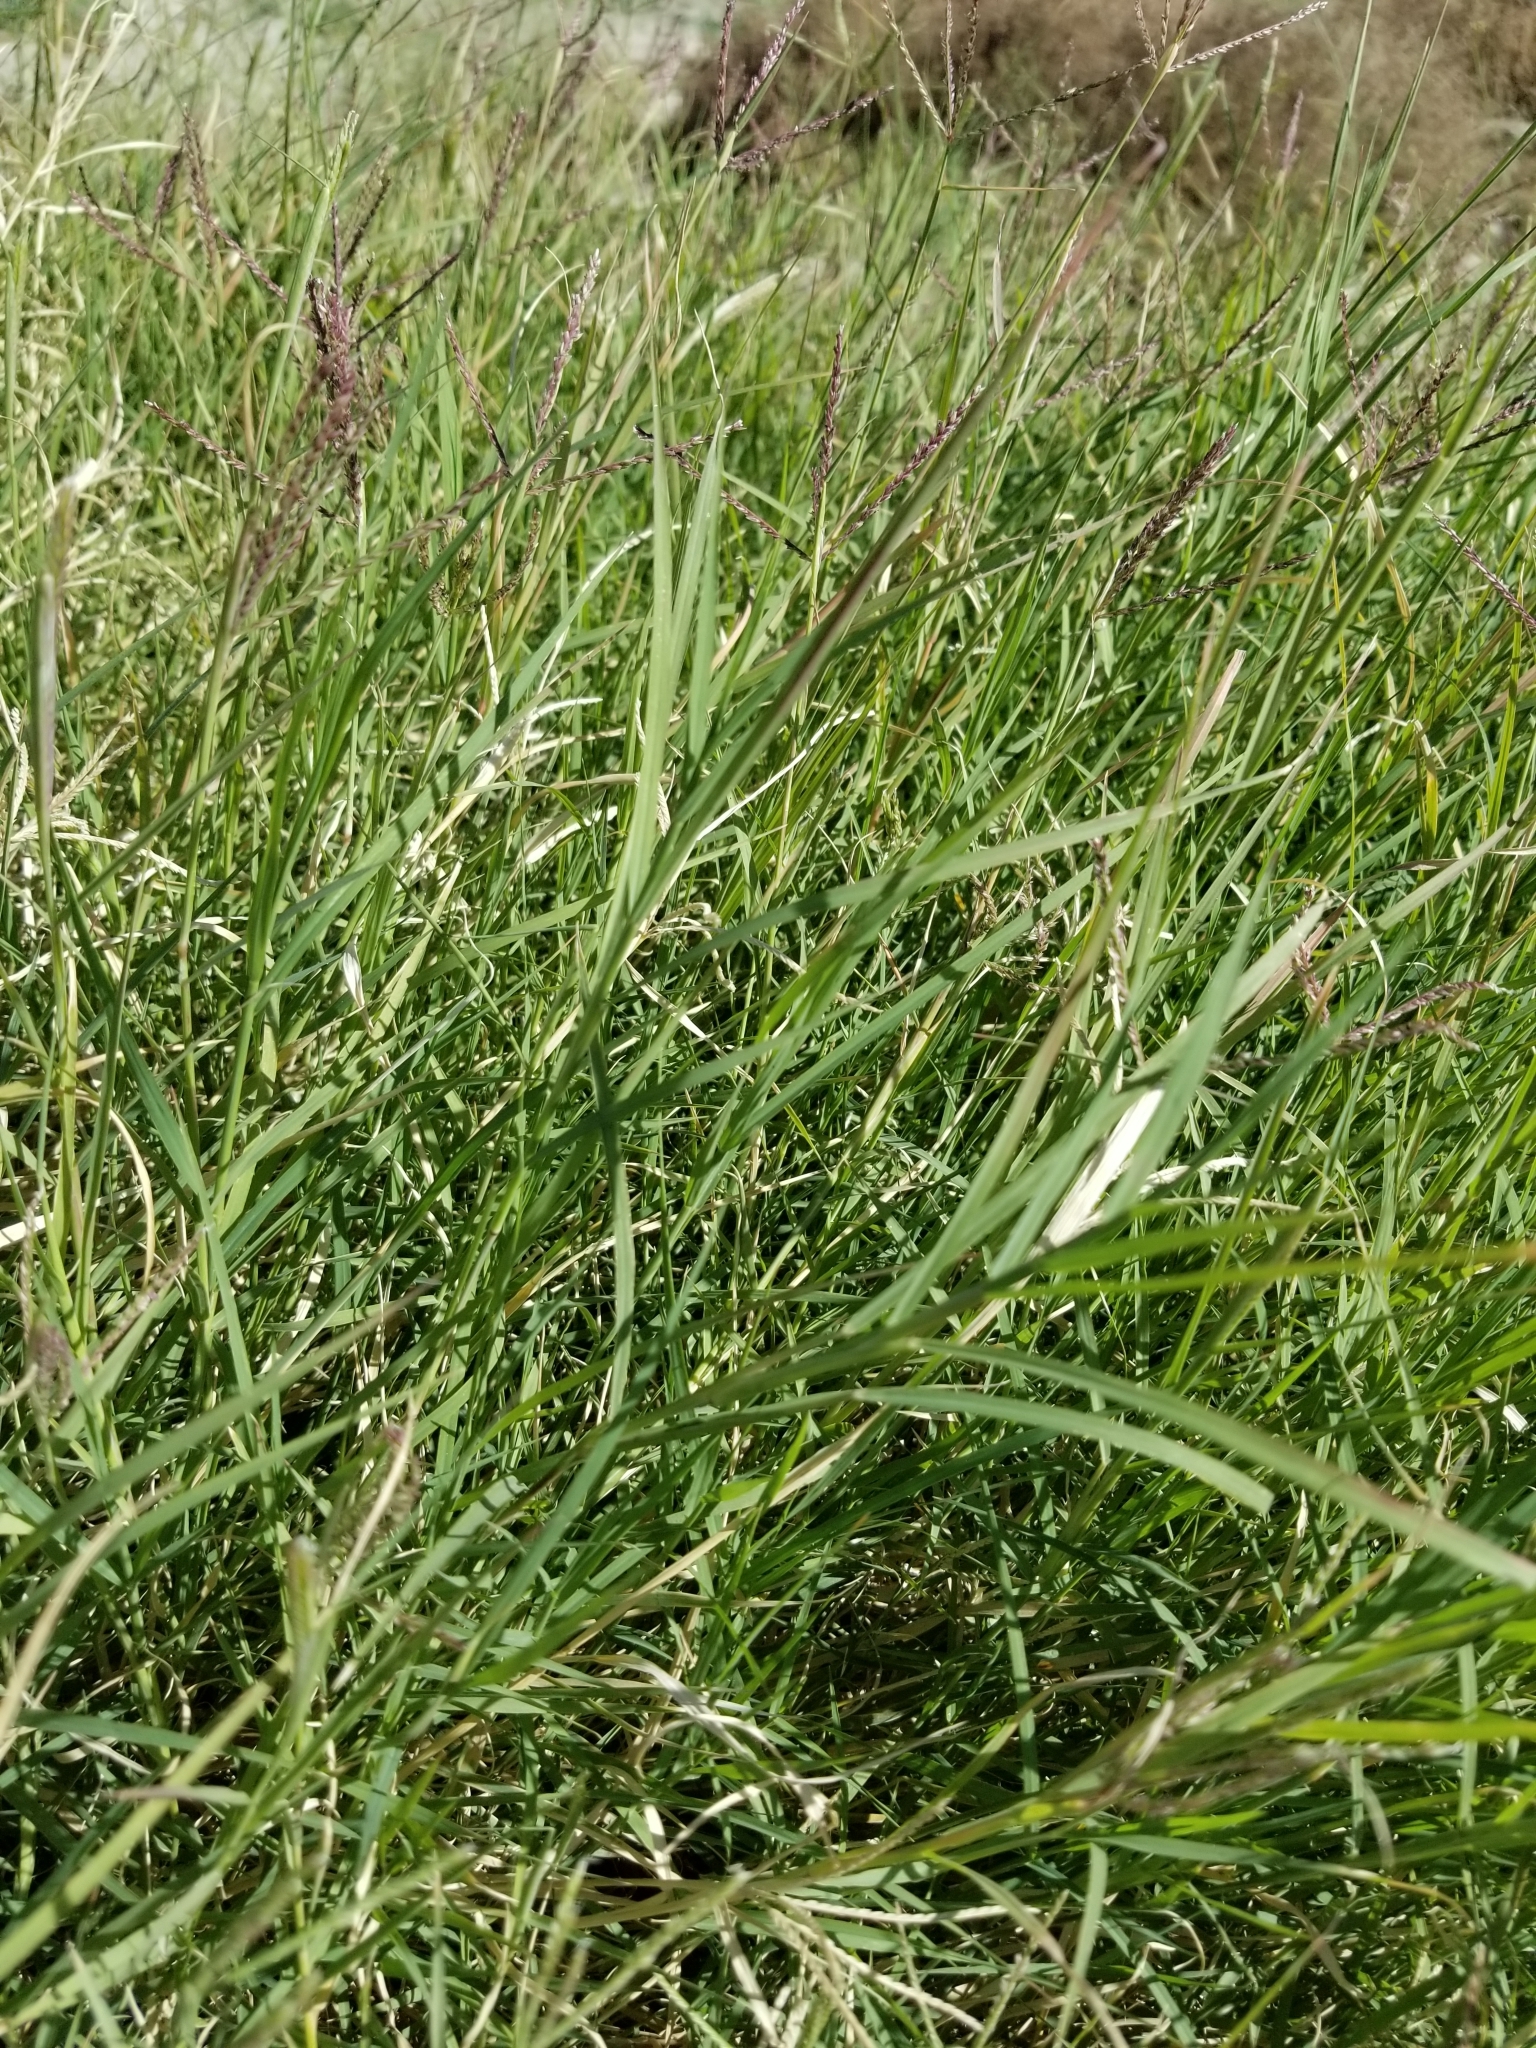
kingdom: Plantae
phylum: Tracheophyta
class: Liliopsida
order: Poales
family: Poaceae
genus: Cynodon
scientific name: Cynodon dactylon
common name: Bermuda grass
